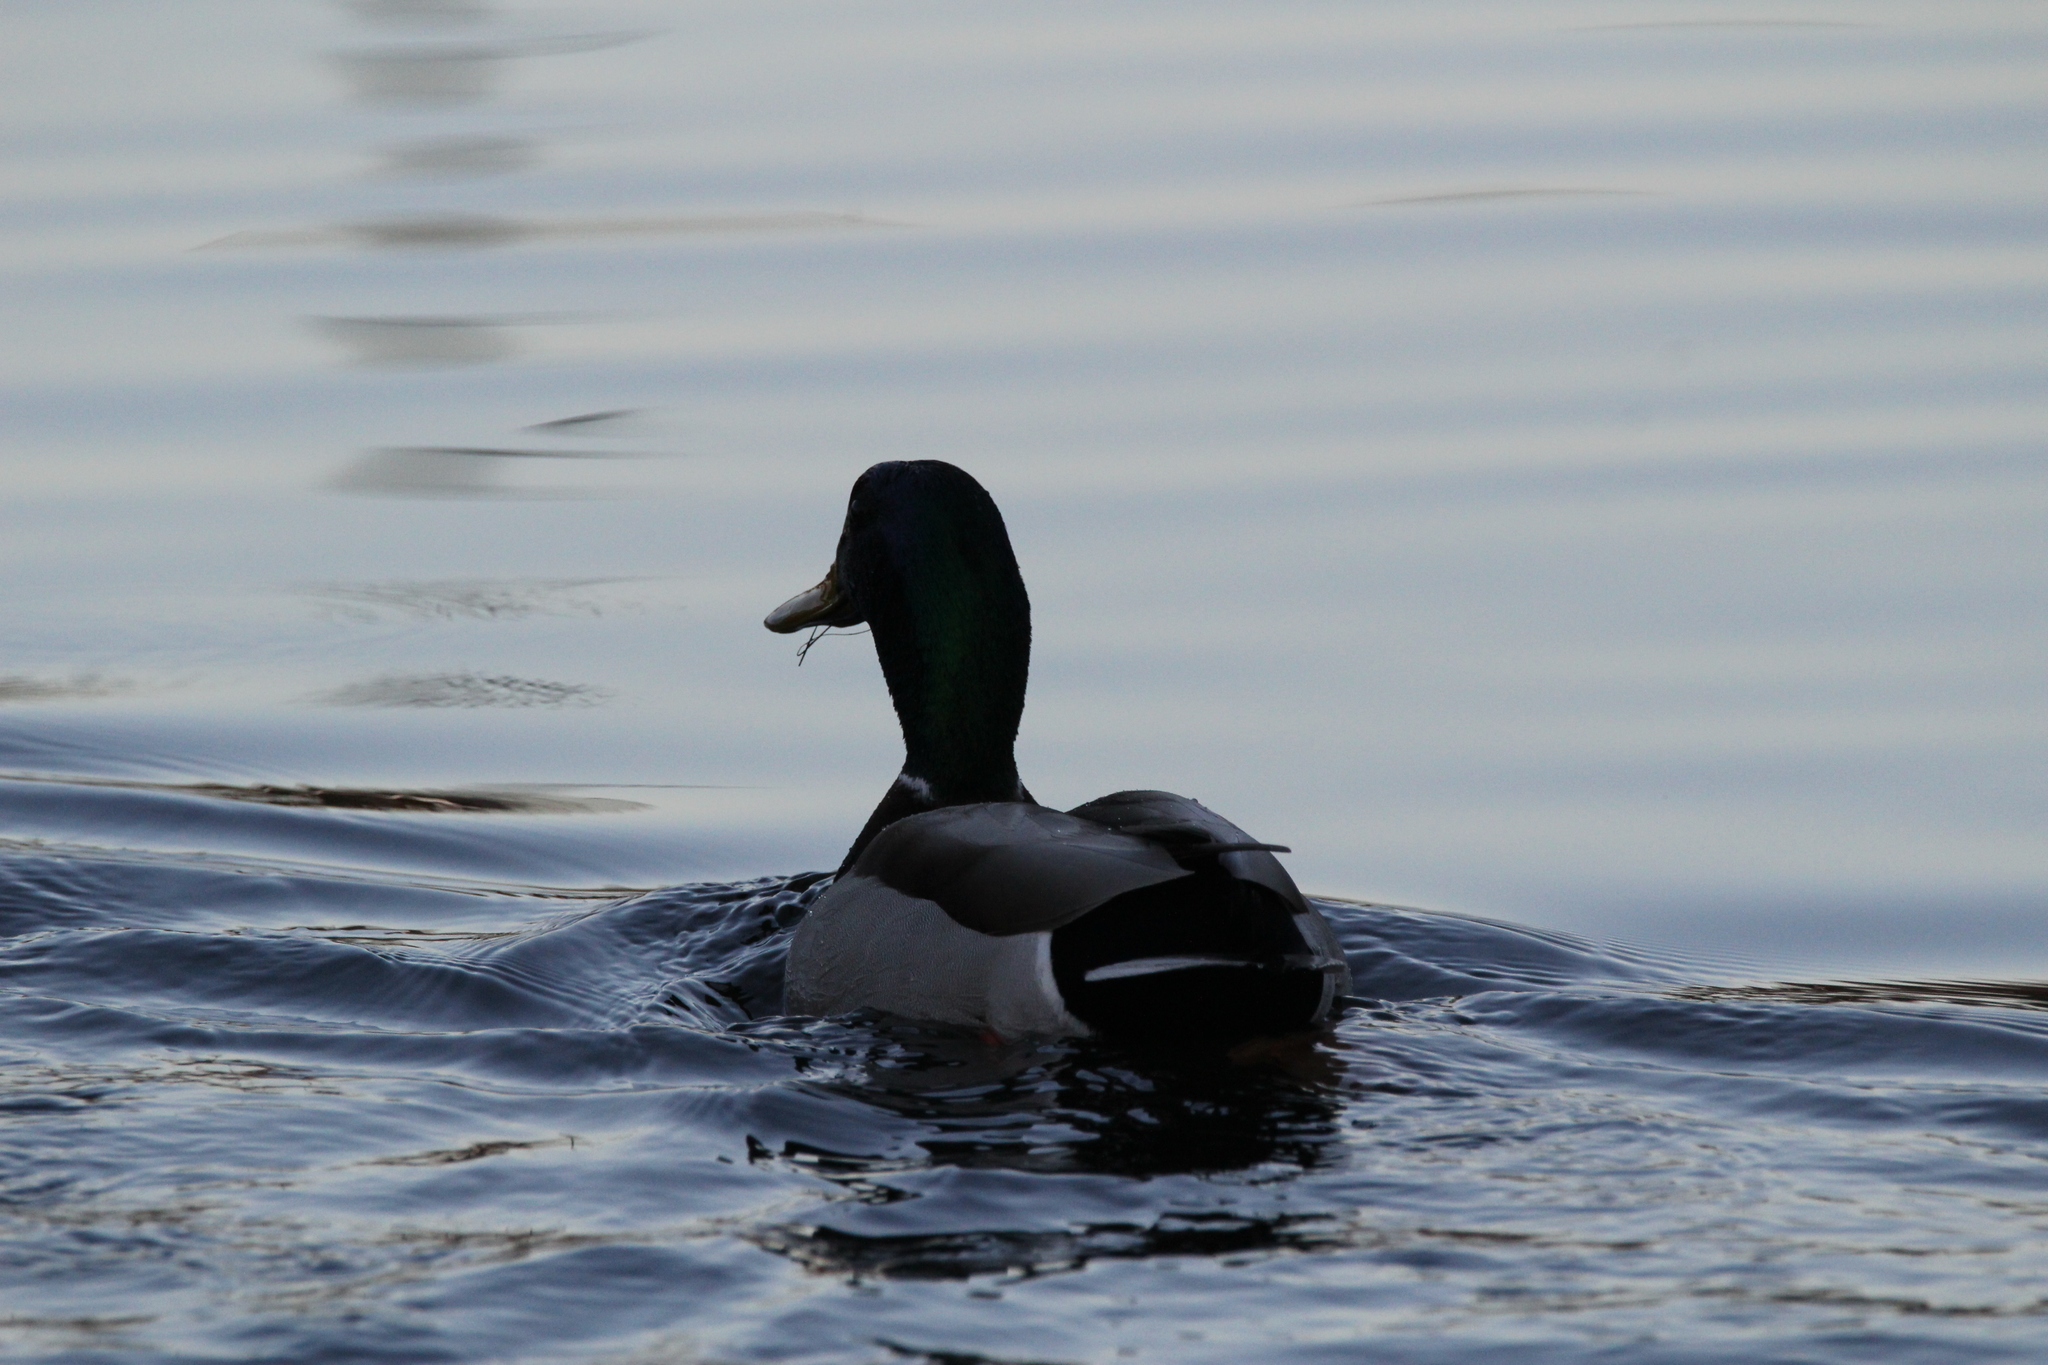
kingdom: Animalia
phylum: Chordata
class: Aves
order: Anseriformes
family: Anatidae
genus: Anas
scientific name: Anas platyrhynchos
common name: Mallard
